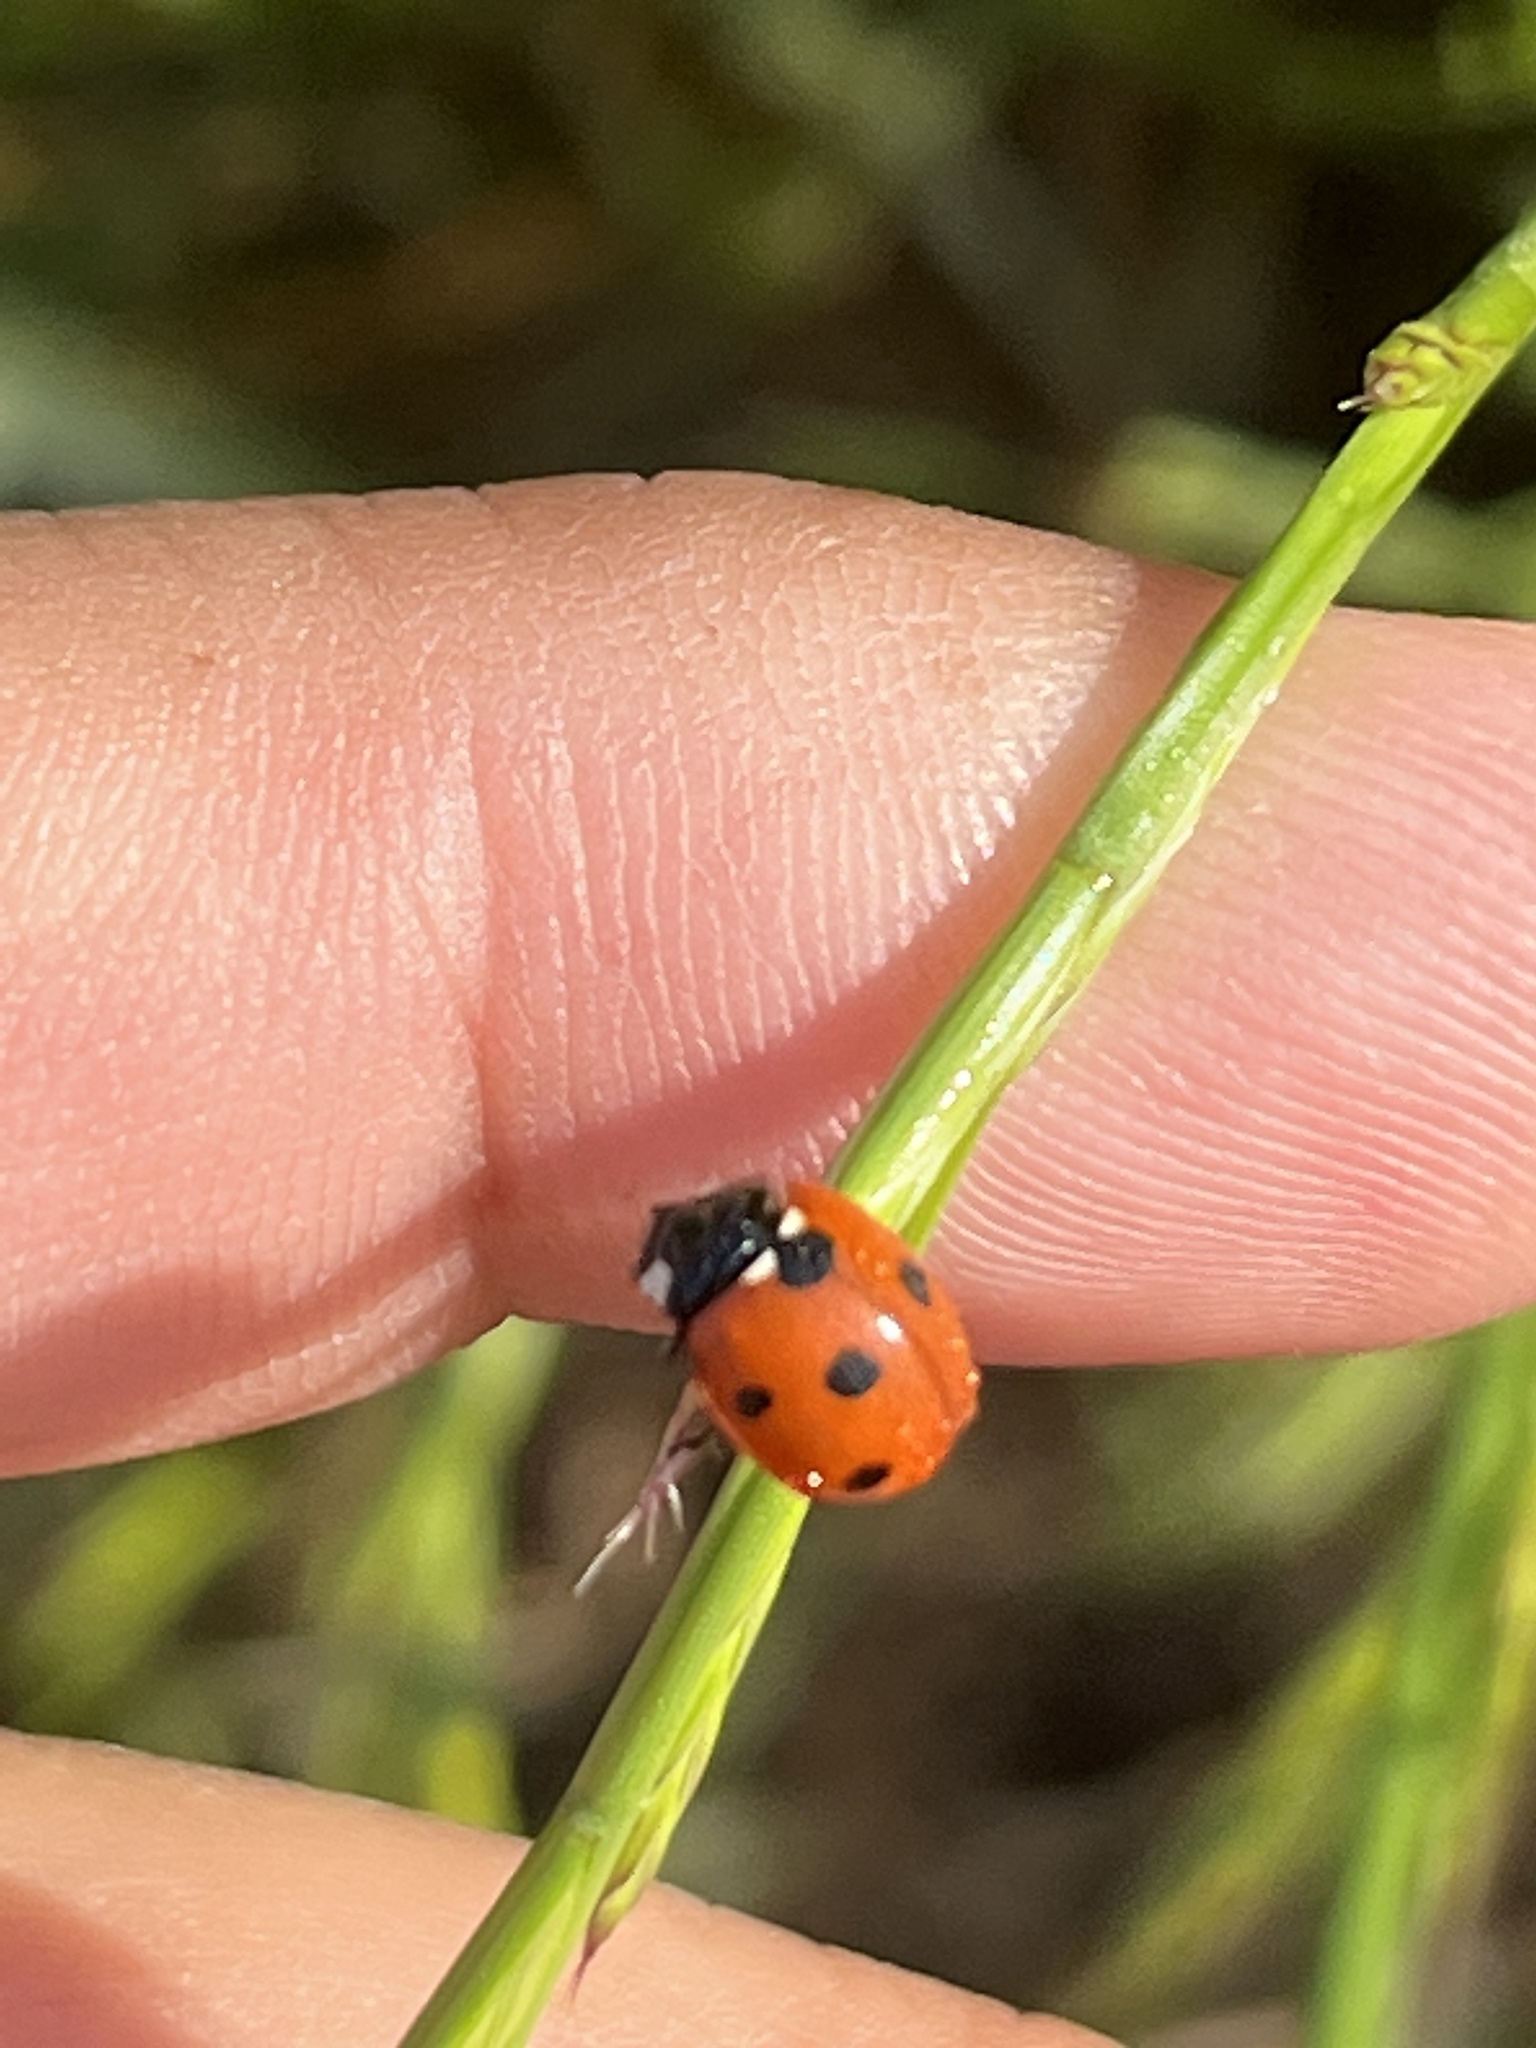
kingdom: Animalia
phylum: Arthropoda
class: Insecta
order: Coleoptera
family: Coccinellidae
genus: Coccinella
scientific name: Coccinella septempunctata
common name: Sevenspotted lady beetle
